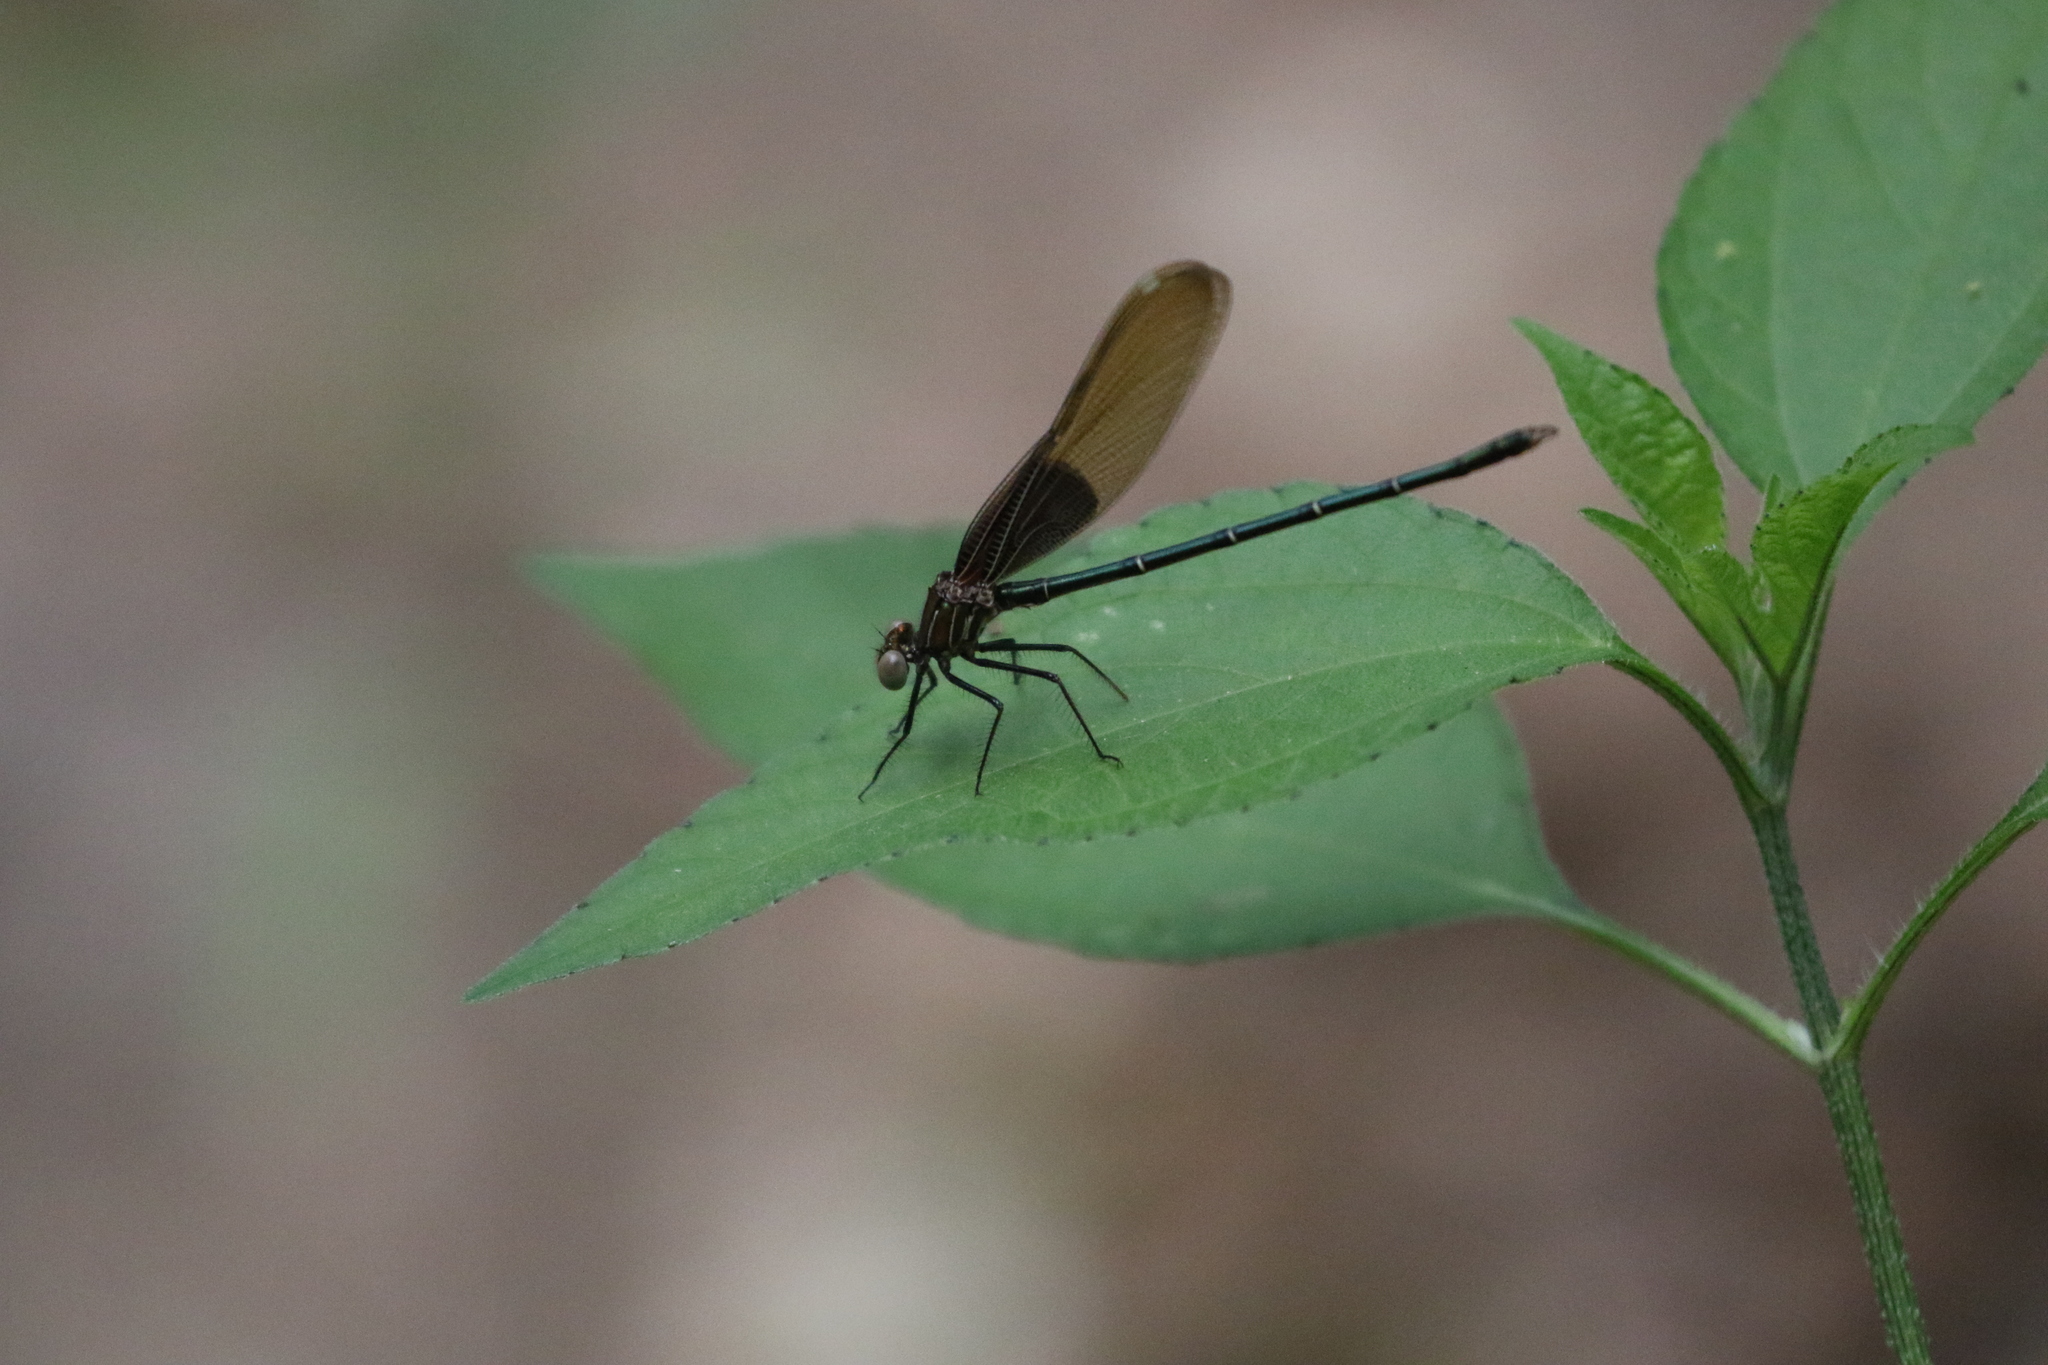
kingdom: Animalia
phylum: Arthropoda
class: Insecta
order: Odonata
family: Calopterygidae
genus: Hetaerina
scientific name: Hetaerina americana
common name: American rubyspot
